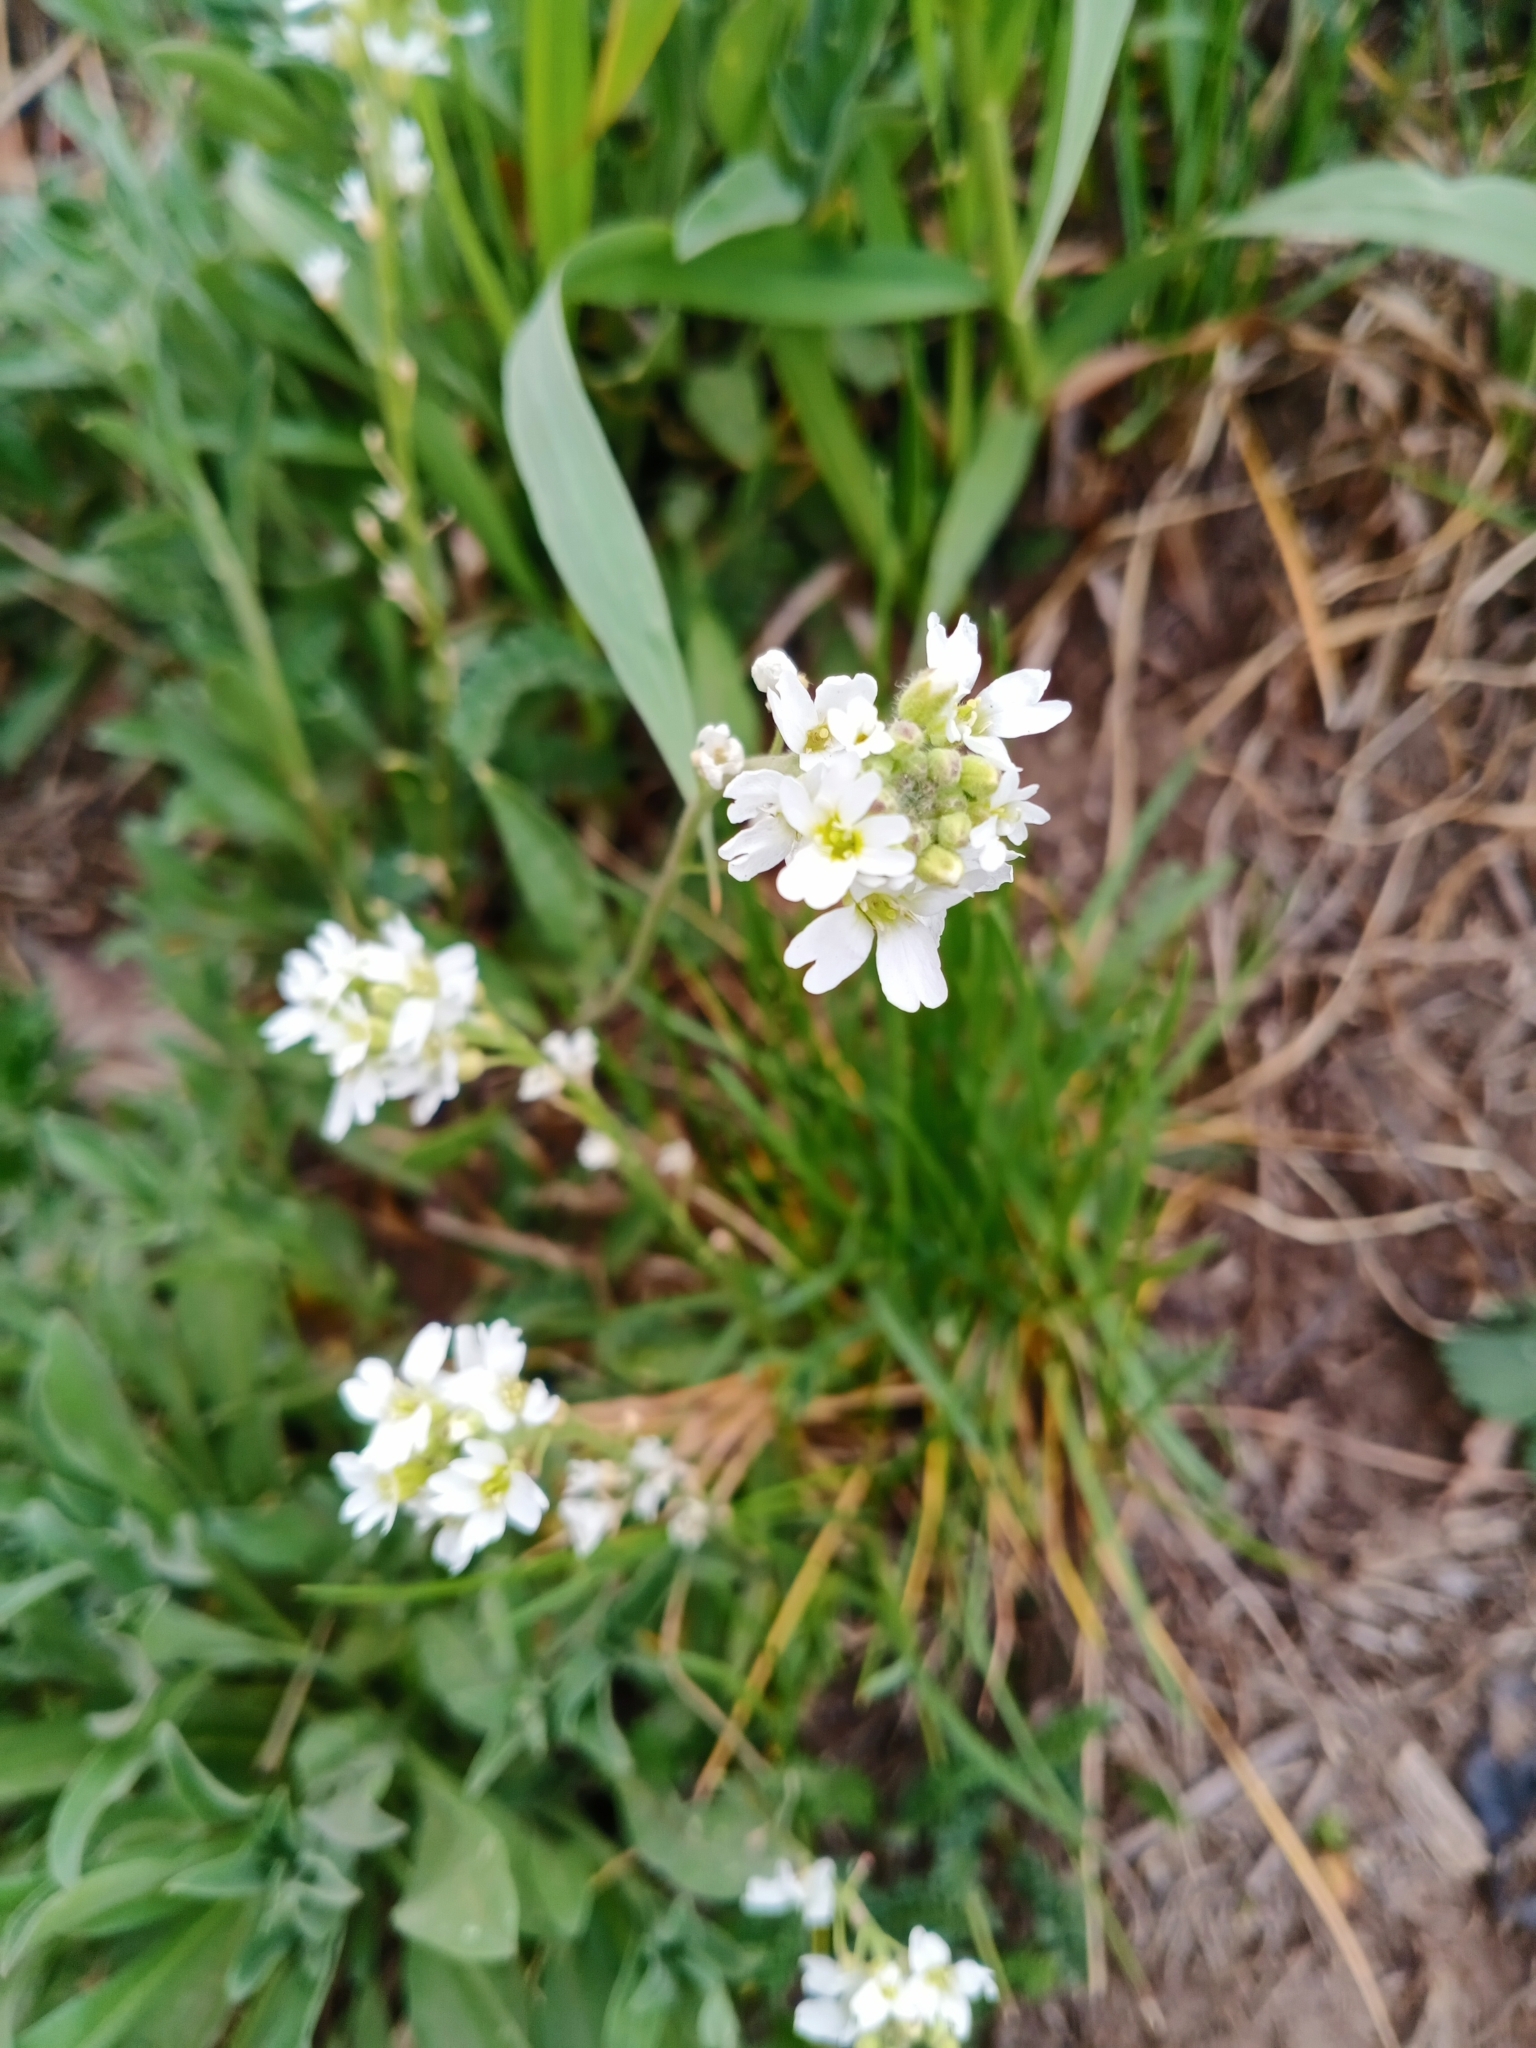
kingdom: Plantae
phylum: Tracheophyta
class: Magnoliopsida
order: Brassicales
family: Brassicaceae
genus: Berteroa
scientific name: Berteroa incana
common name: Hoary alison
